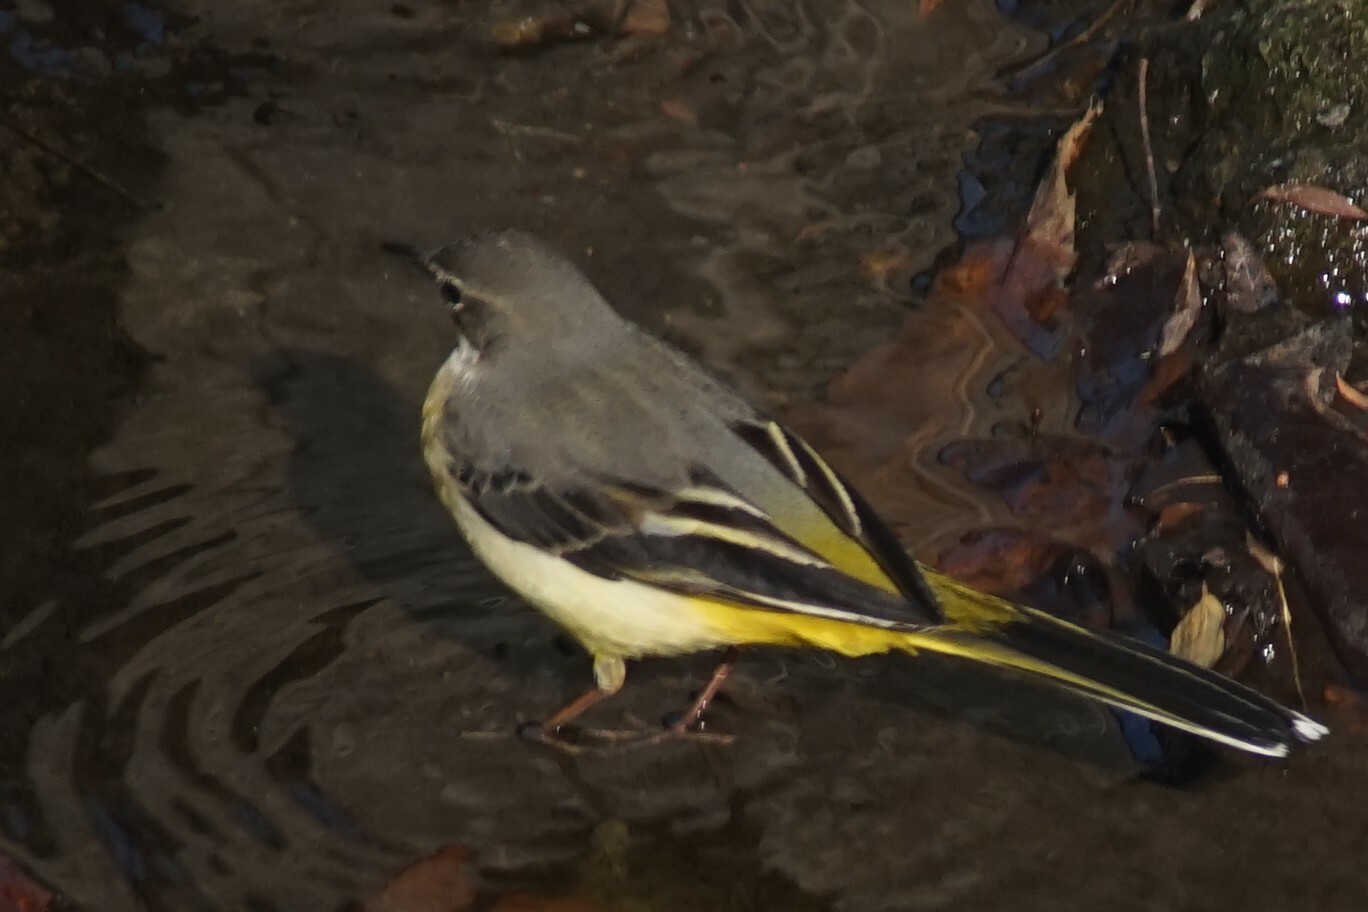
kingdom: Animalia
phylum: Chordata
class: Aves
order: Passeriformes
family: Motacillidae
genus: Motacilla
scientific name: Motacilla cinerea
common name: Grey wagtail
